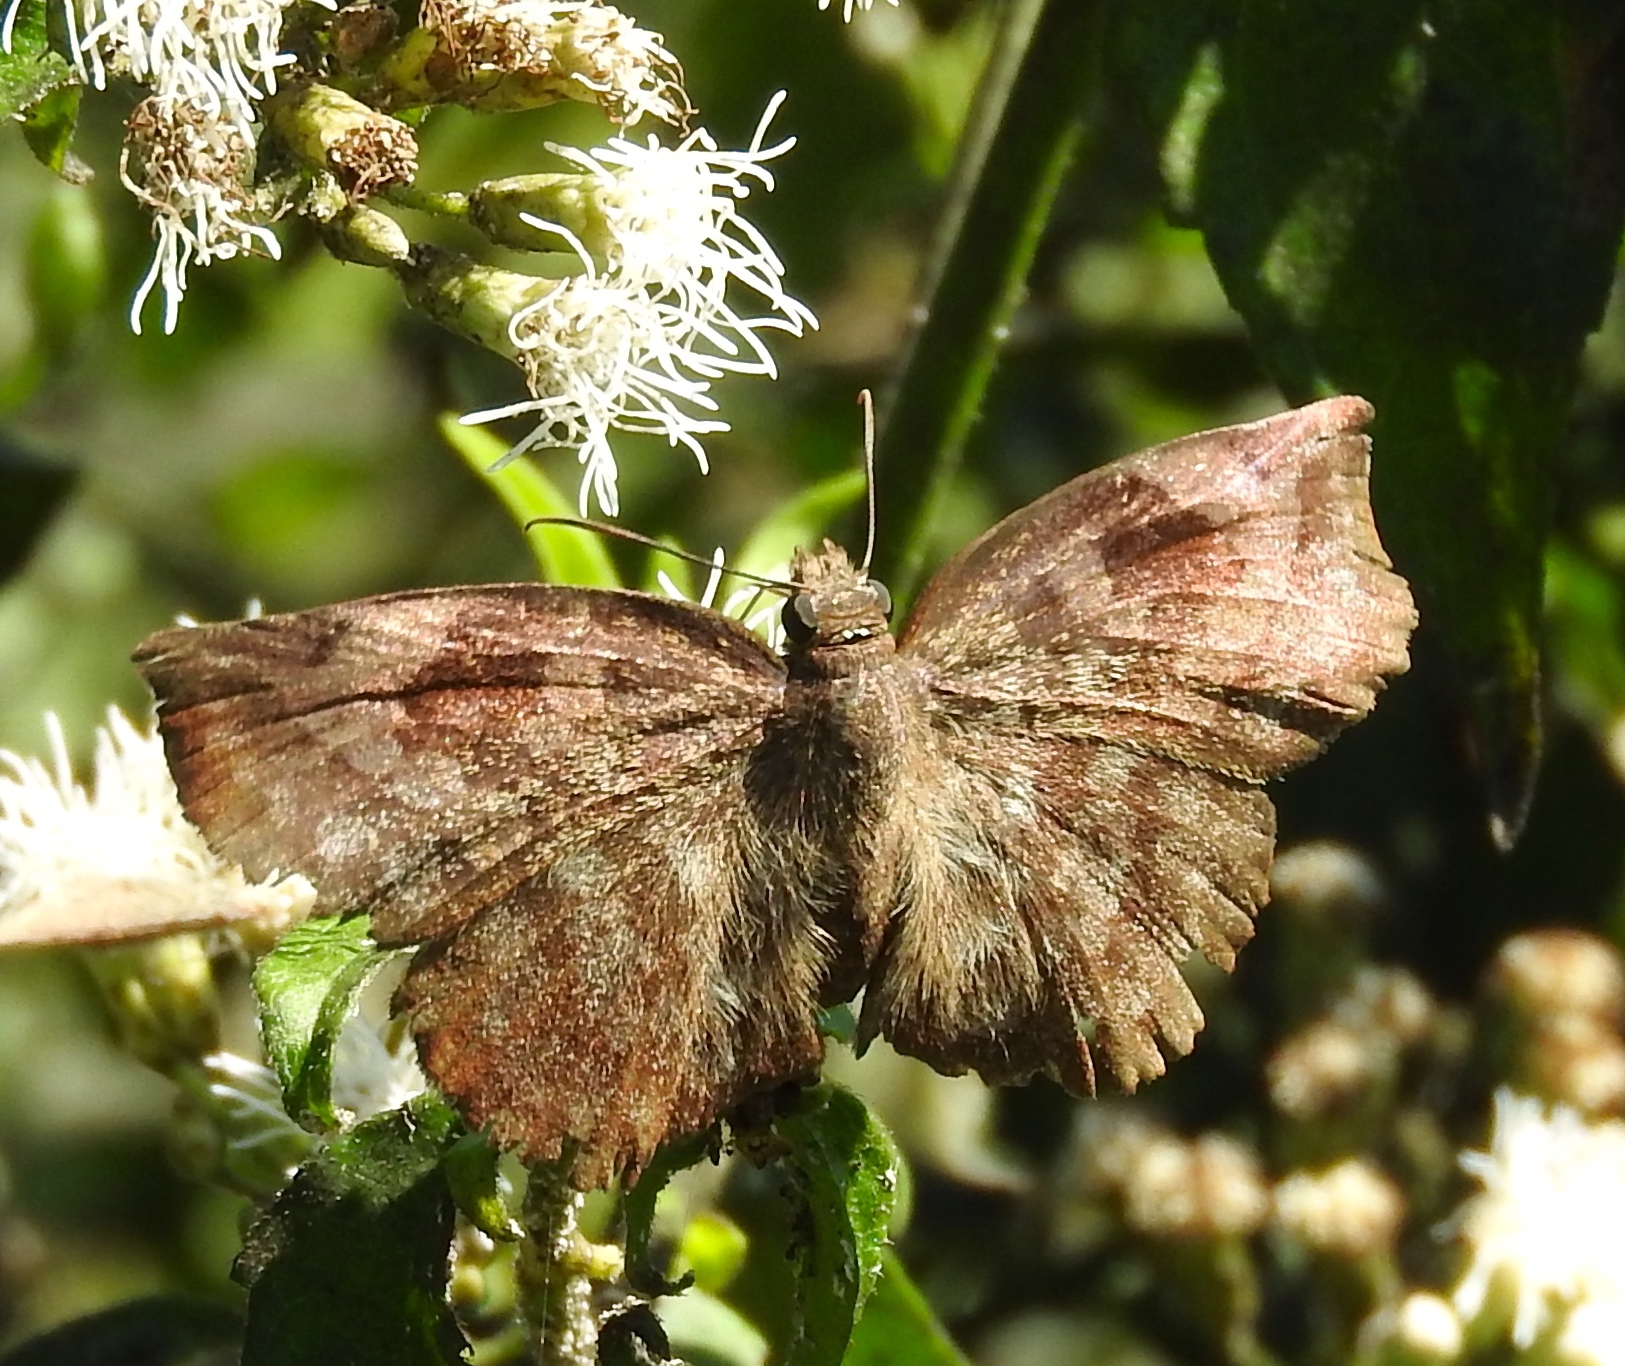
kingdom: Animalia
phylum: Arthropoda
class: Insecta
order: Lepidoptera
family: Hesperiidae
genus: Achlyodes
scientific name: Achlyodes thraso
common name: Sickle-winged skipper
